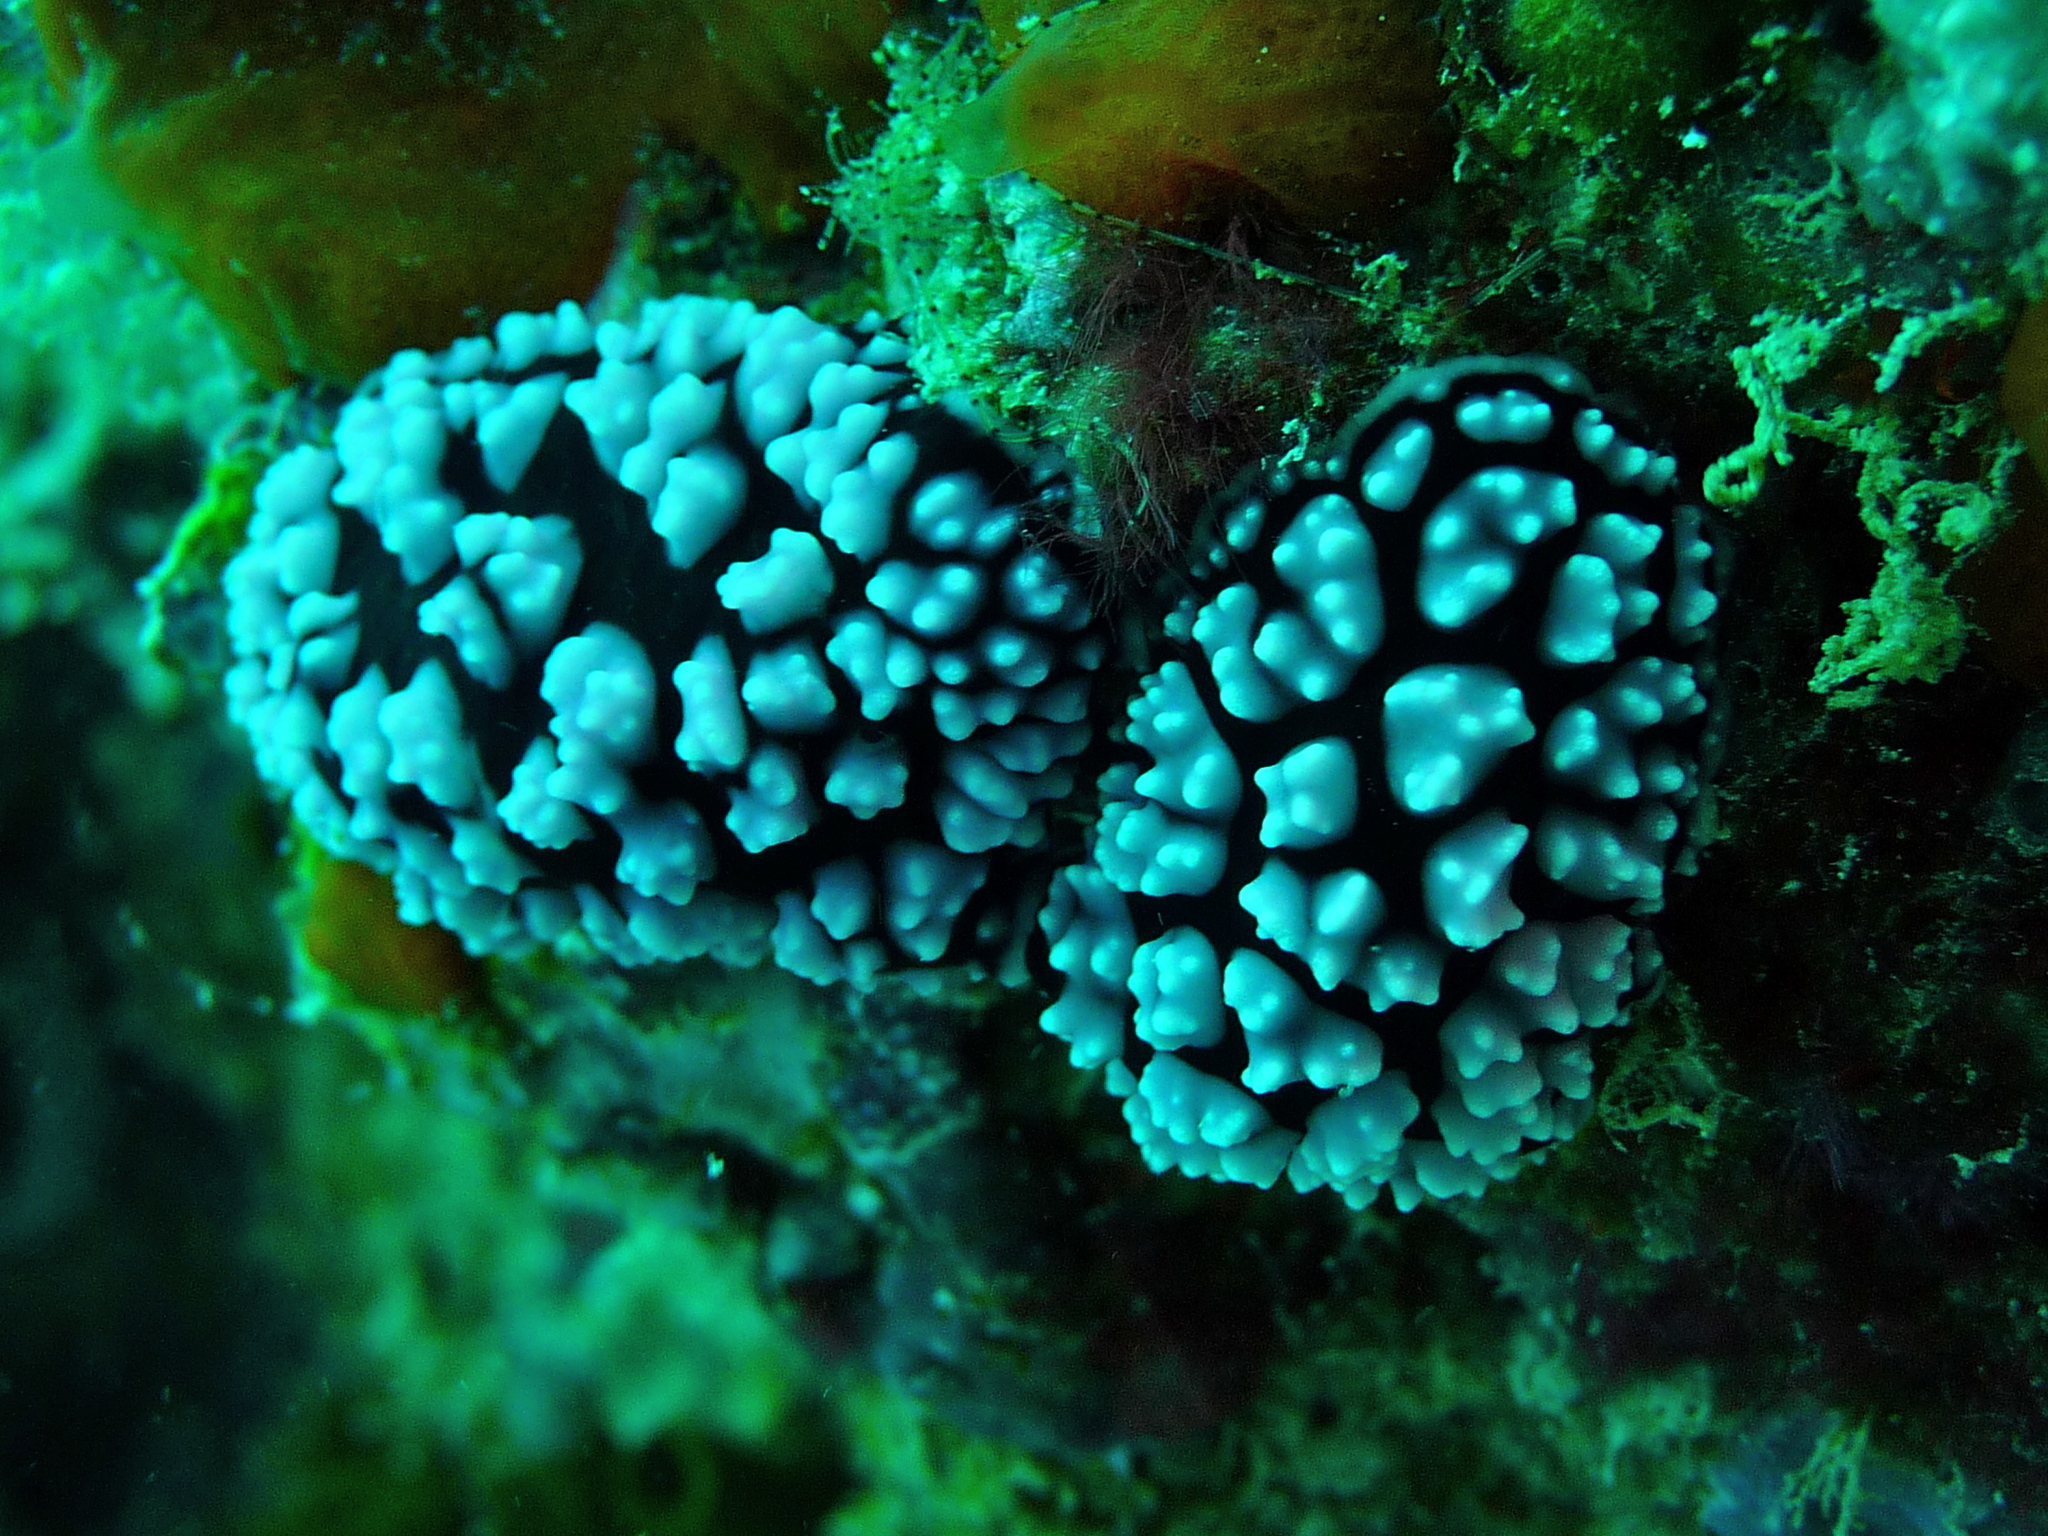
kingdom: Animalia
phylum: Mollusca
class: Gastropoda
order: Nudibranchia
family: Phyllidiidae
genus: Phyllidiella
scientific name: Phyllidiella pustulosa
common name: Pustular phyllidia
